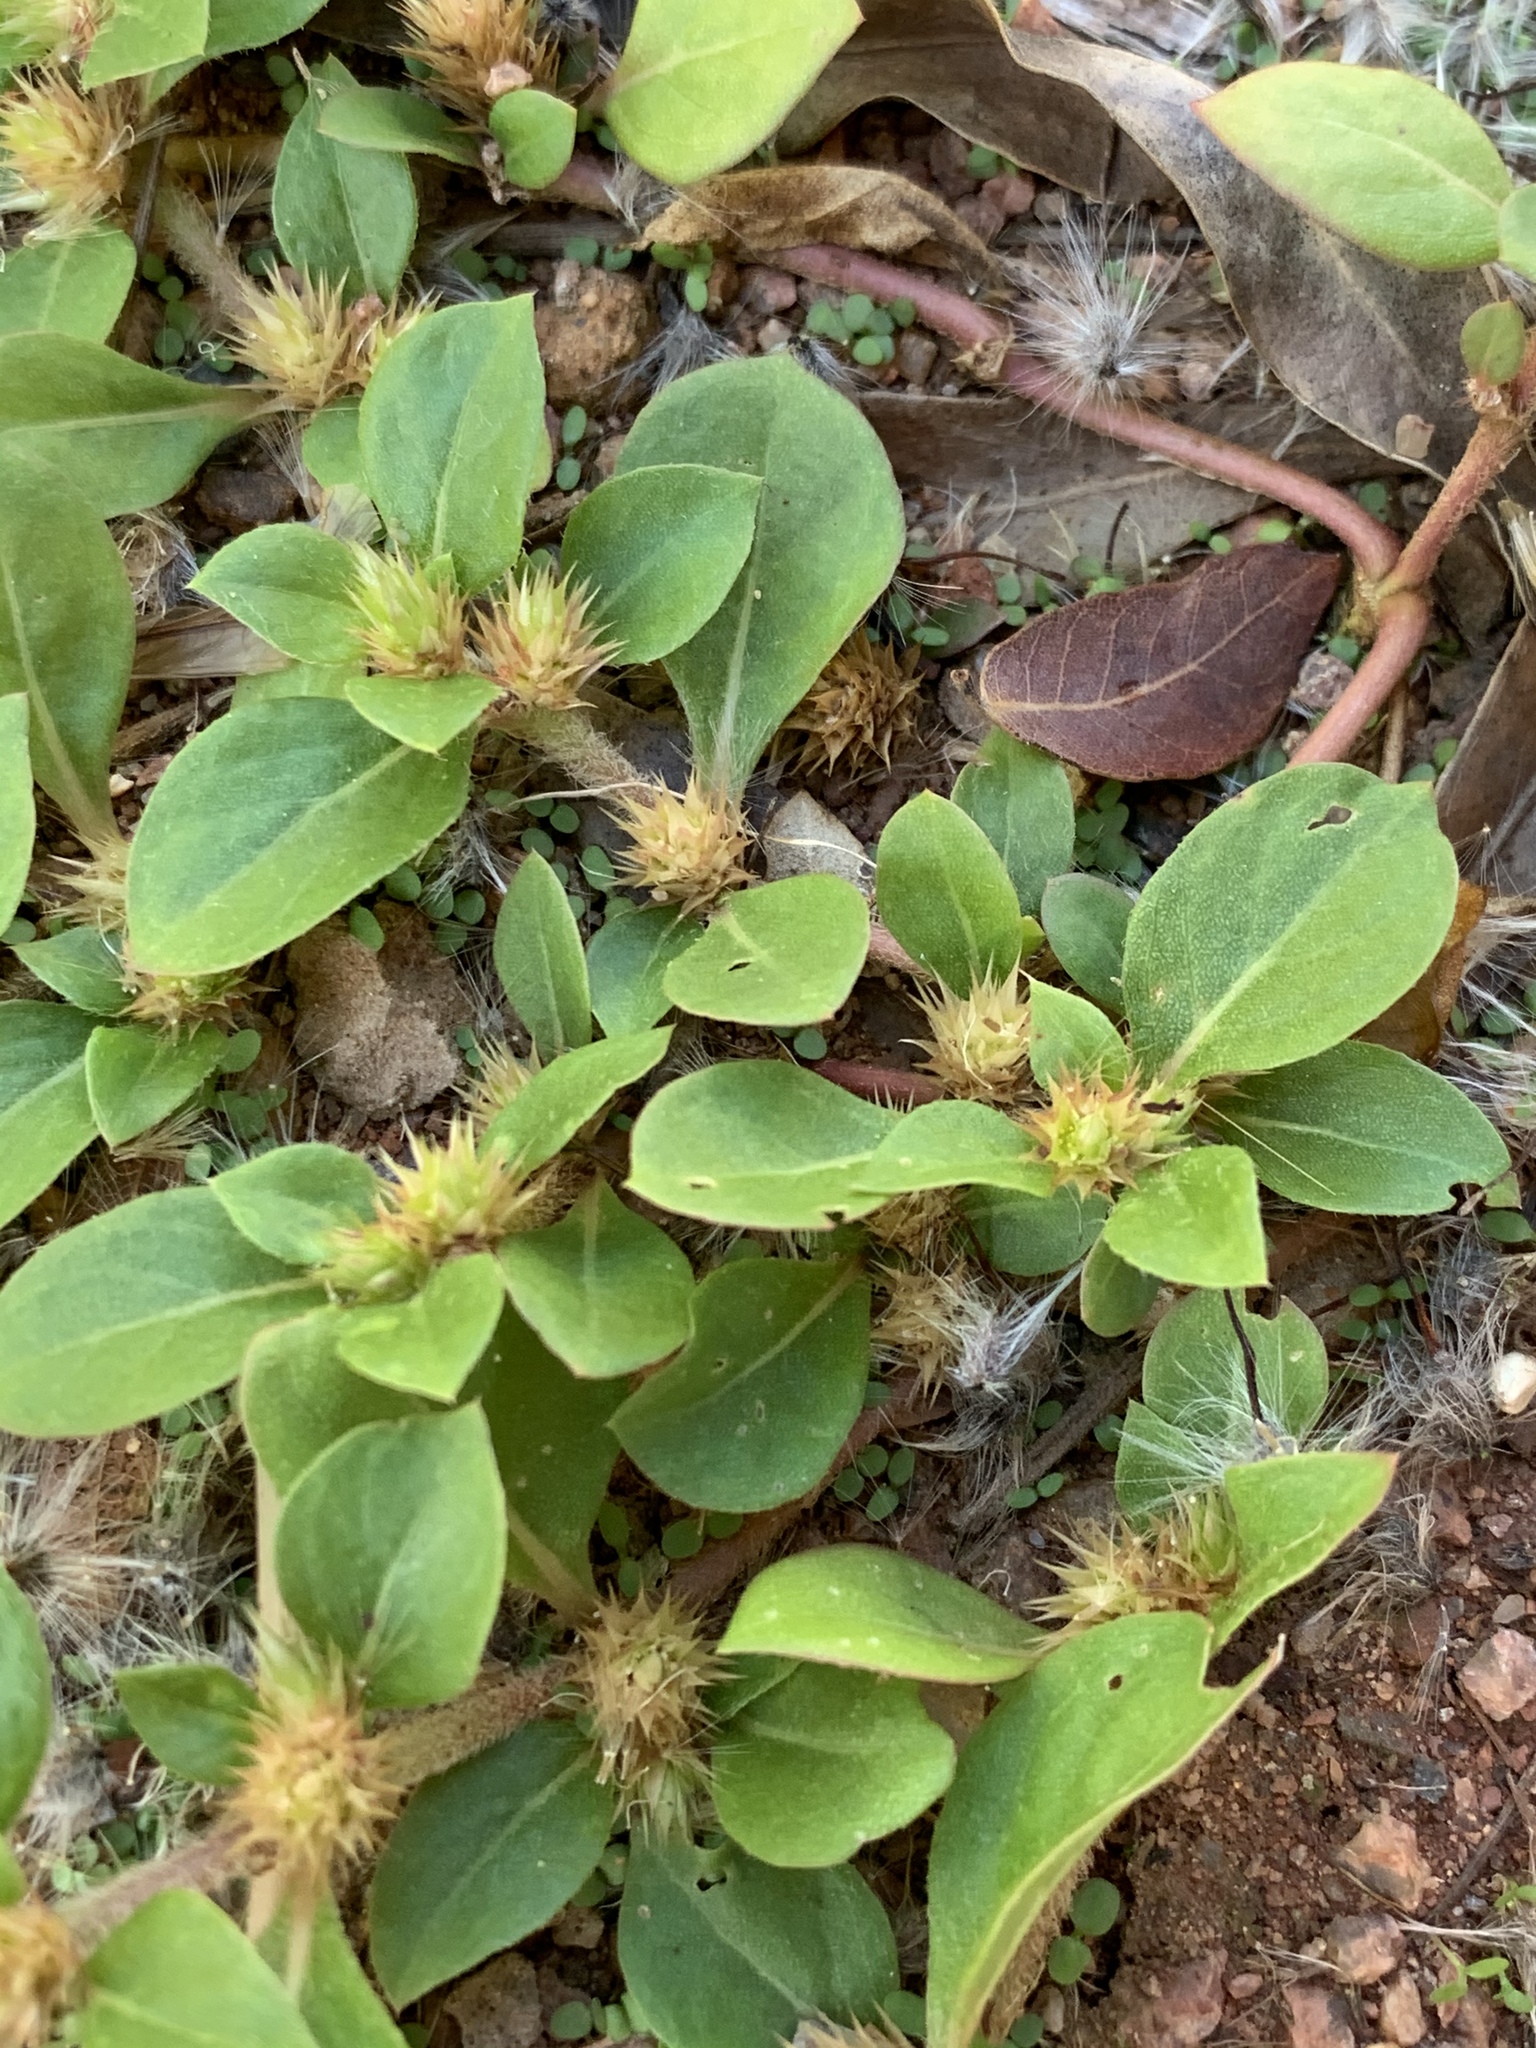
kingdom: Plantae
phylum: Tracheophyta
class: Magnoliopsida
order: Caryophyllales
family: Amaranthaceae
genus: Alternanthera
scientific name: Alternanthera pungens
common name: Khakiweed
